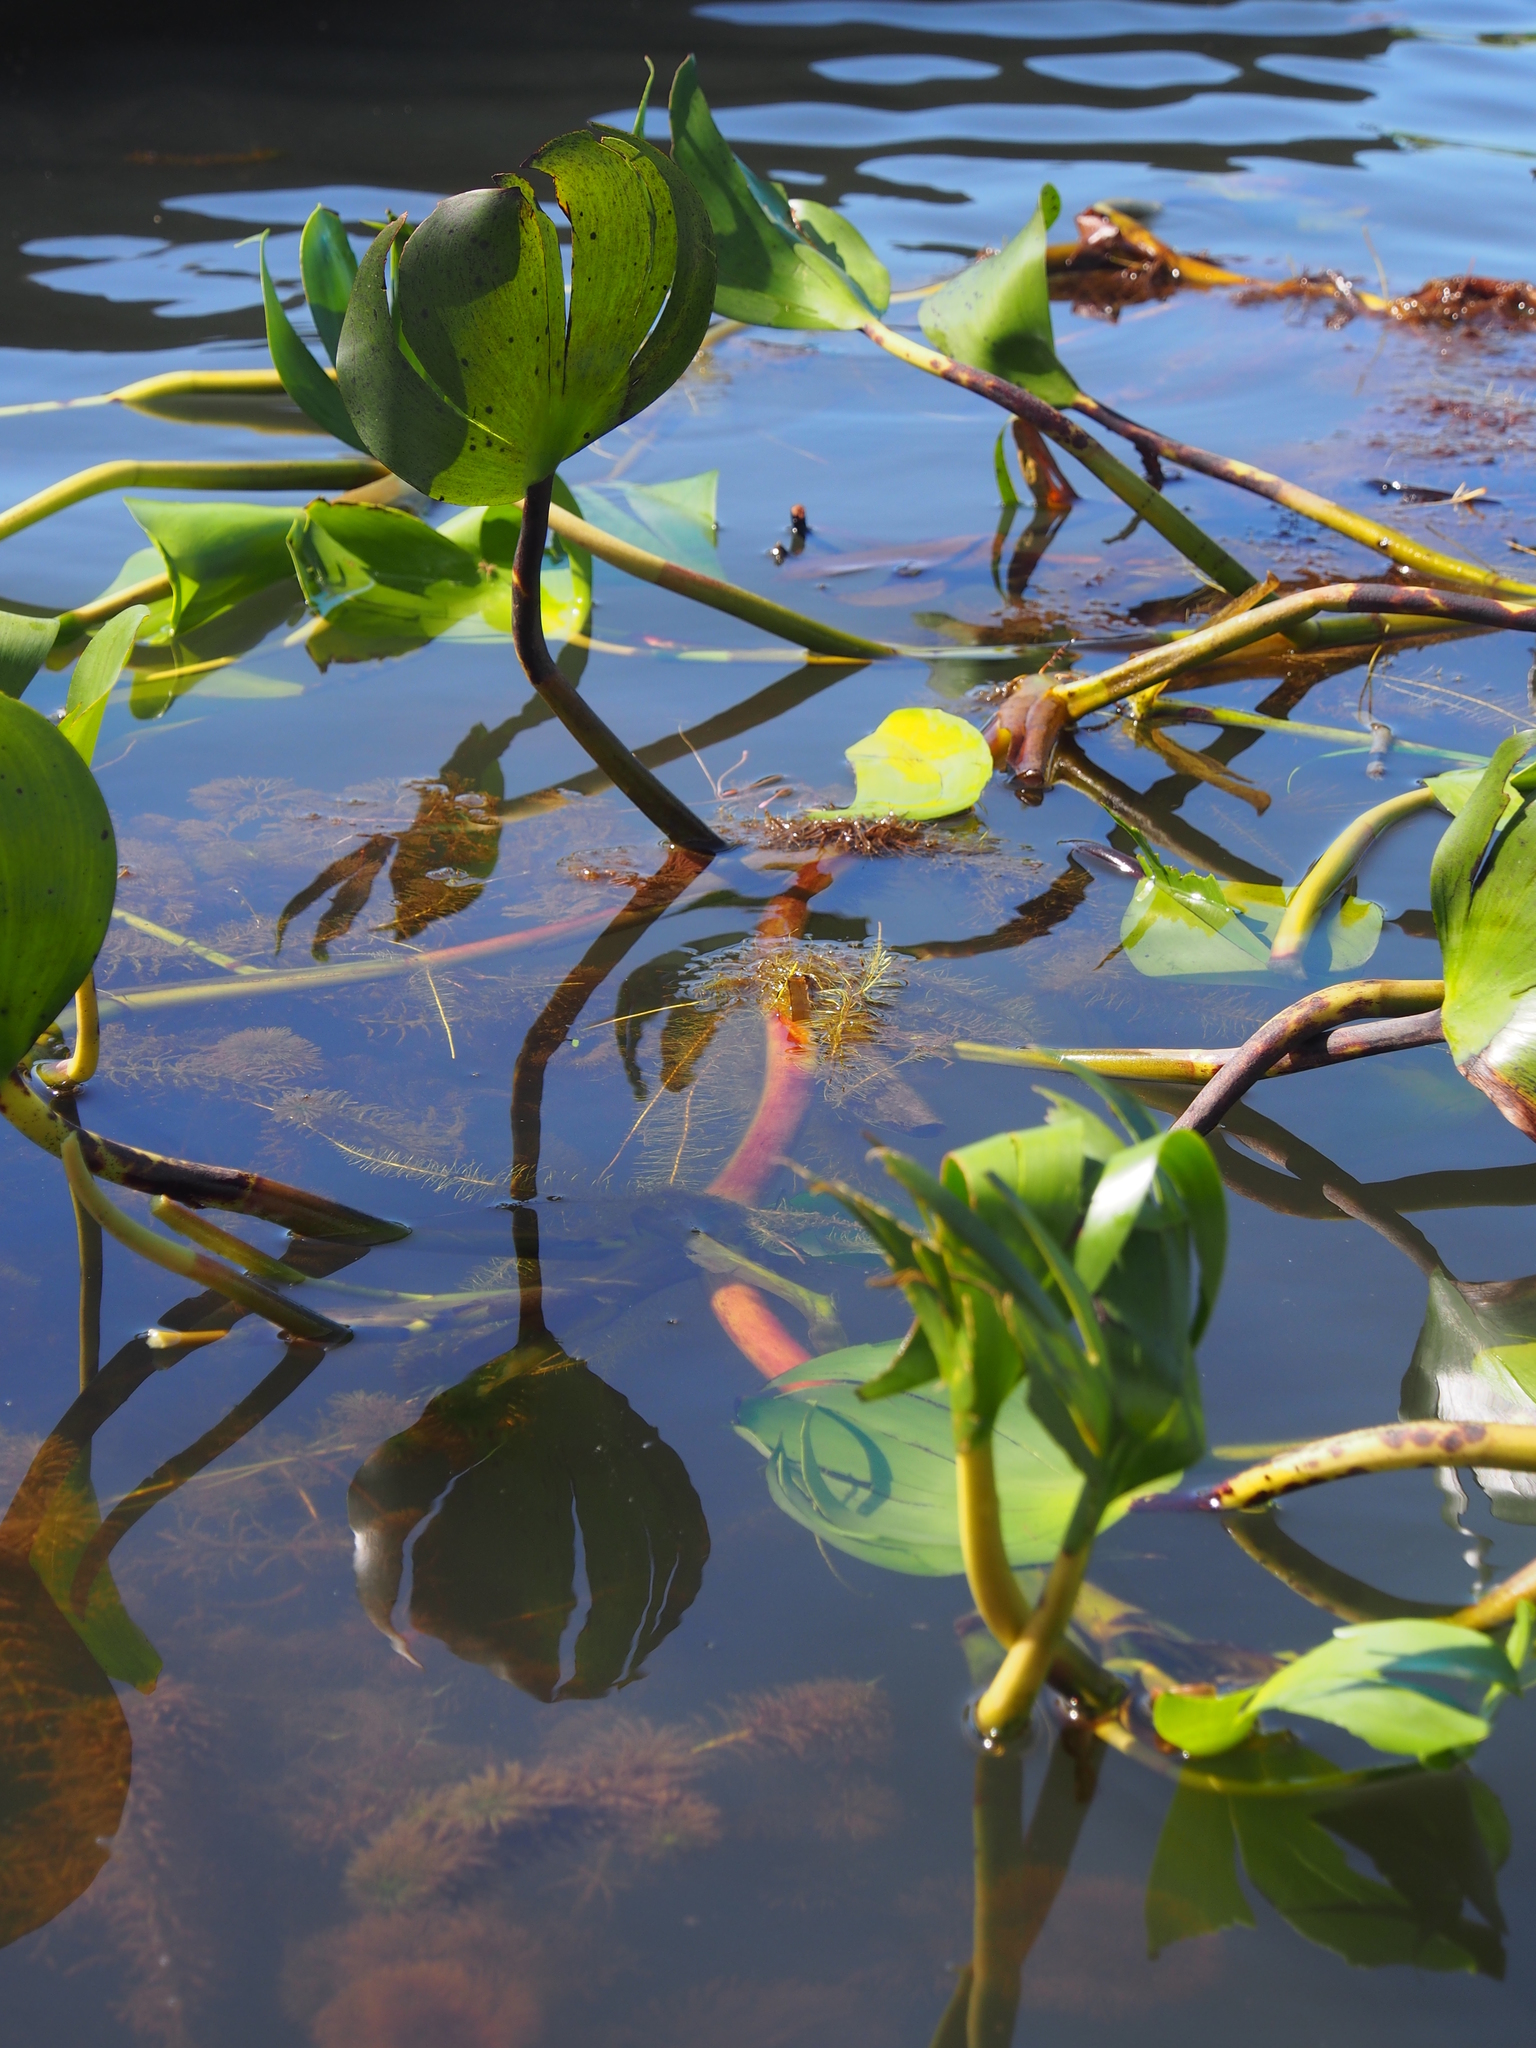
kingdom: Plantae
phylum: Tracheophyta
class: Liliopsida
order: Commelinales
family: Pontederiaceae
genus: Pontederia
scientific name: Pontederia heterosperma
